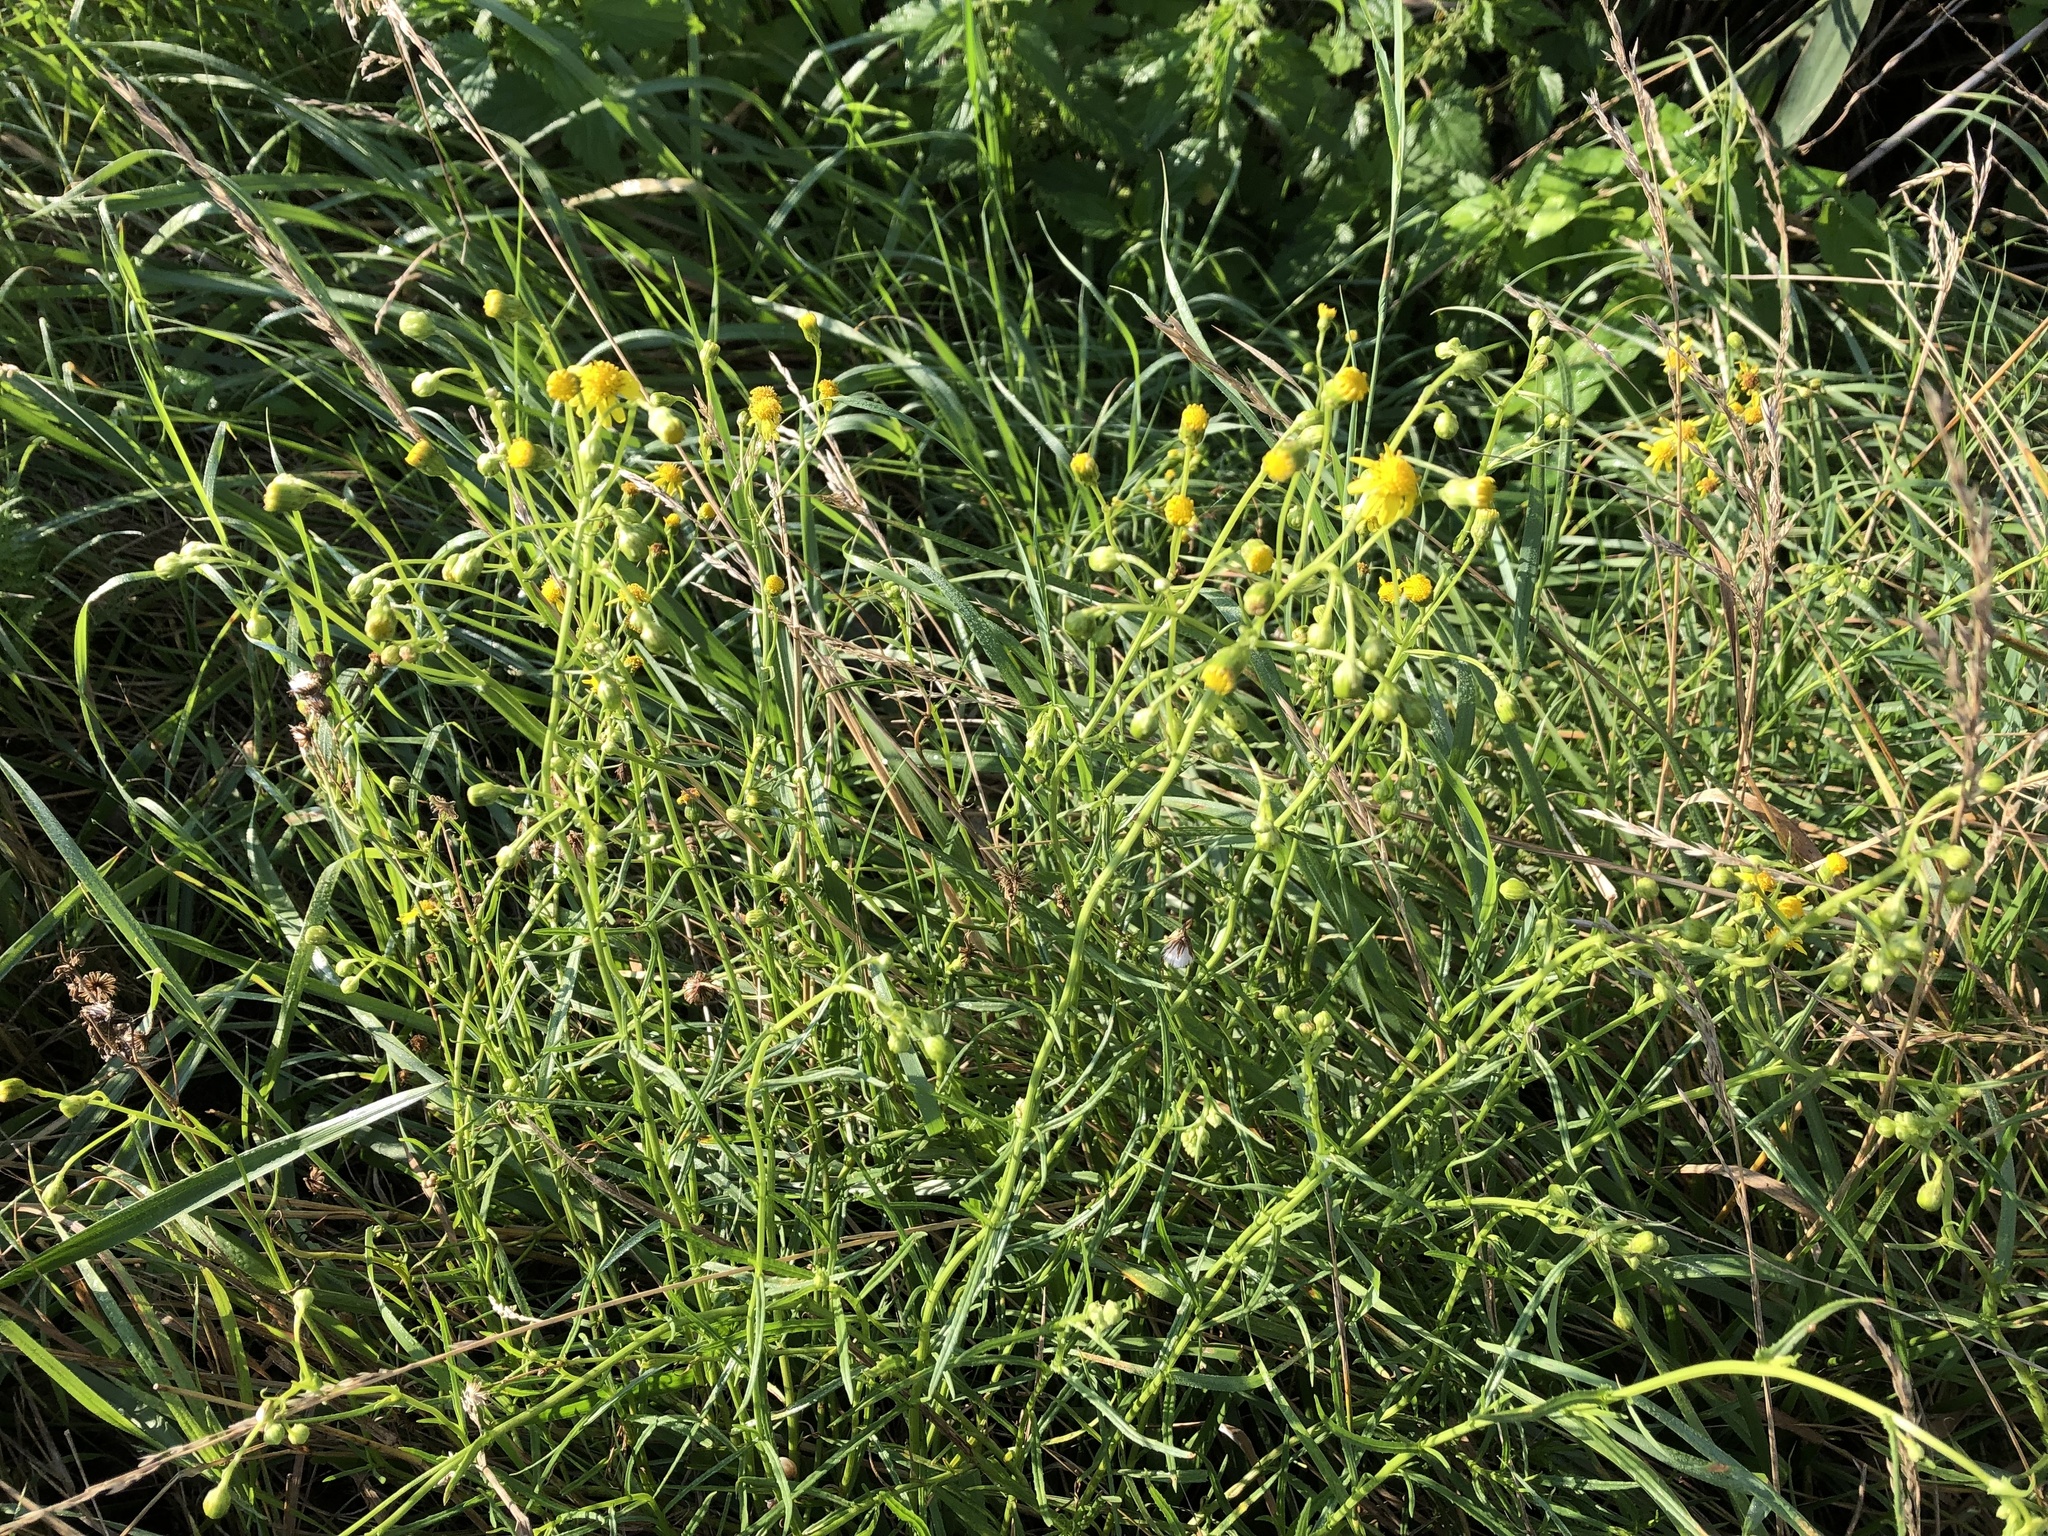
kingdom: Plantae
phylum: Tracheophyta
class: Magnoliopsida
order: Asterales
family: Asteraceae
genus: Senecio
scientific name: Senecio inaequidens
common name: Narrow-leaved ragwort
